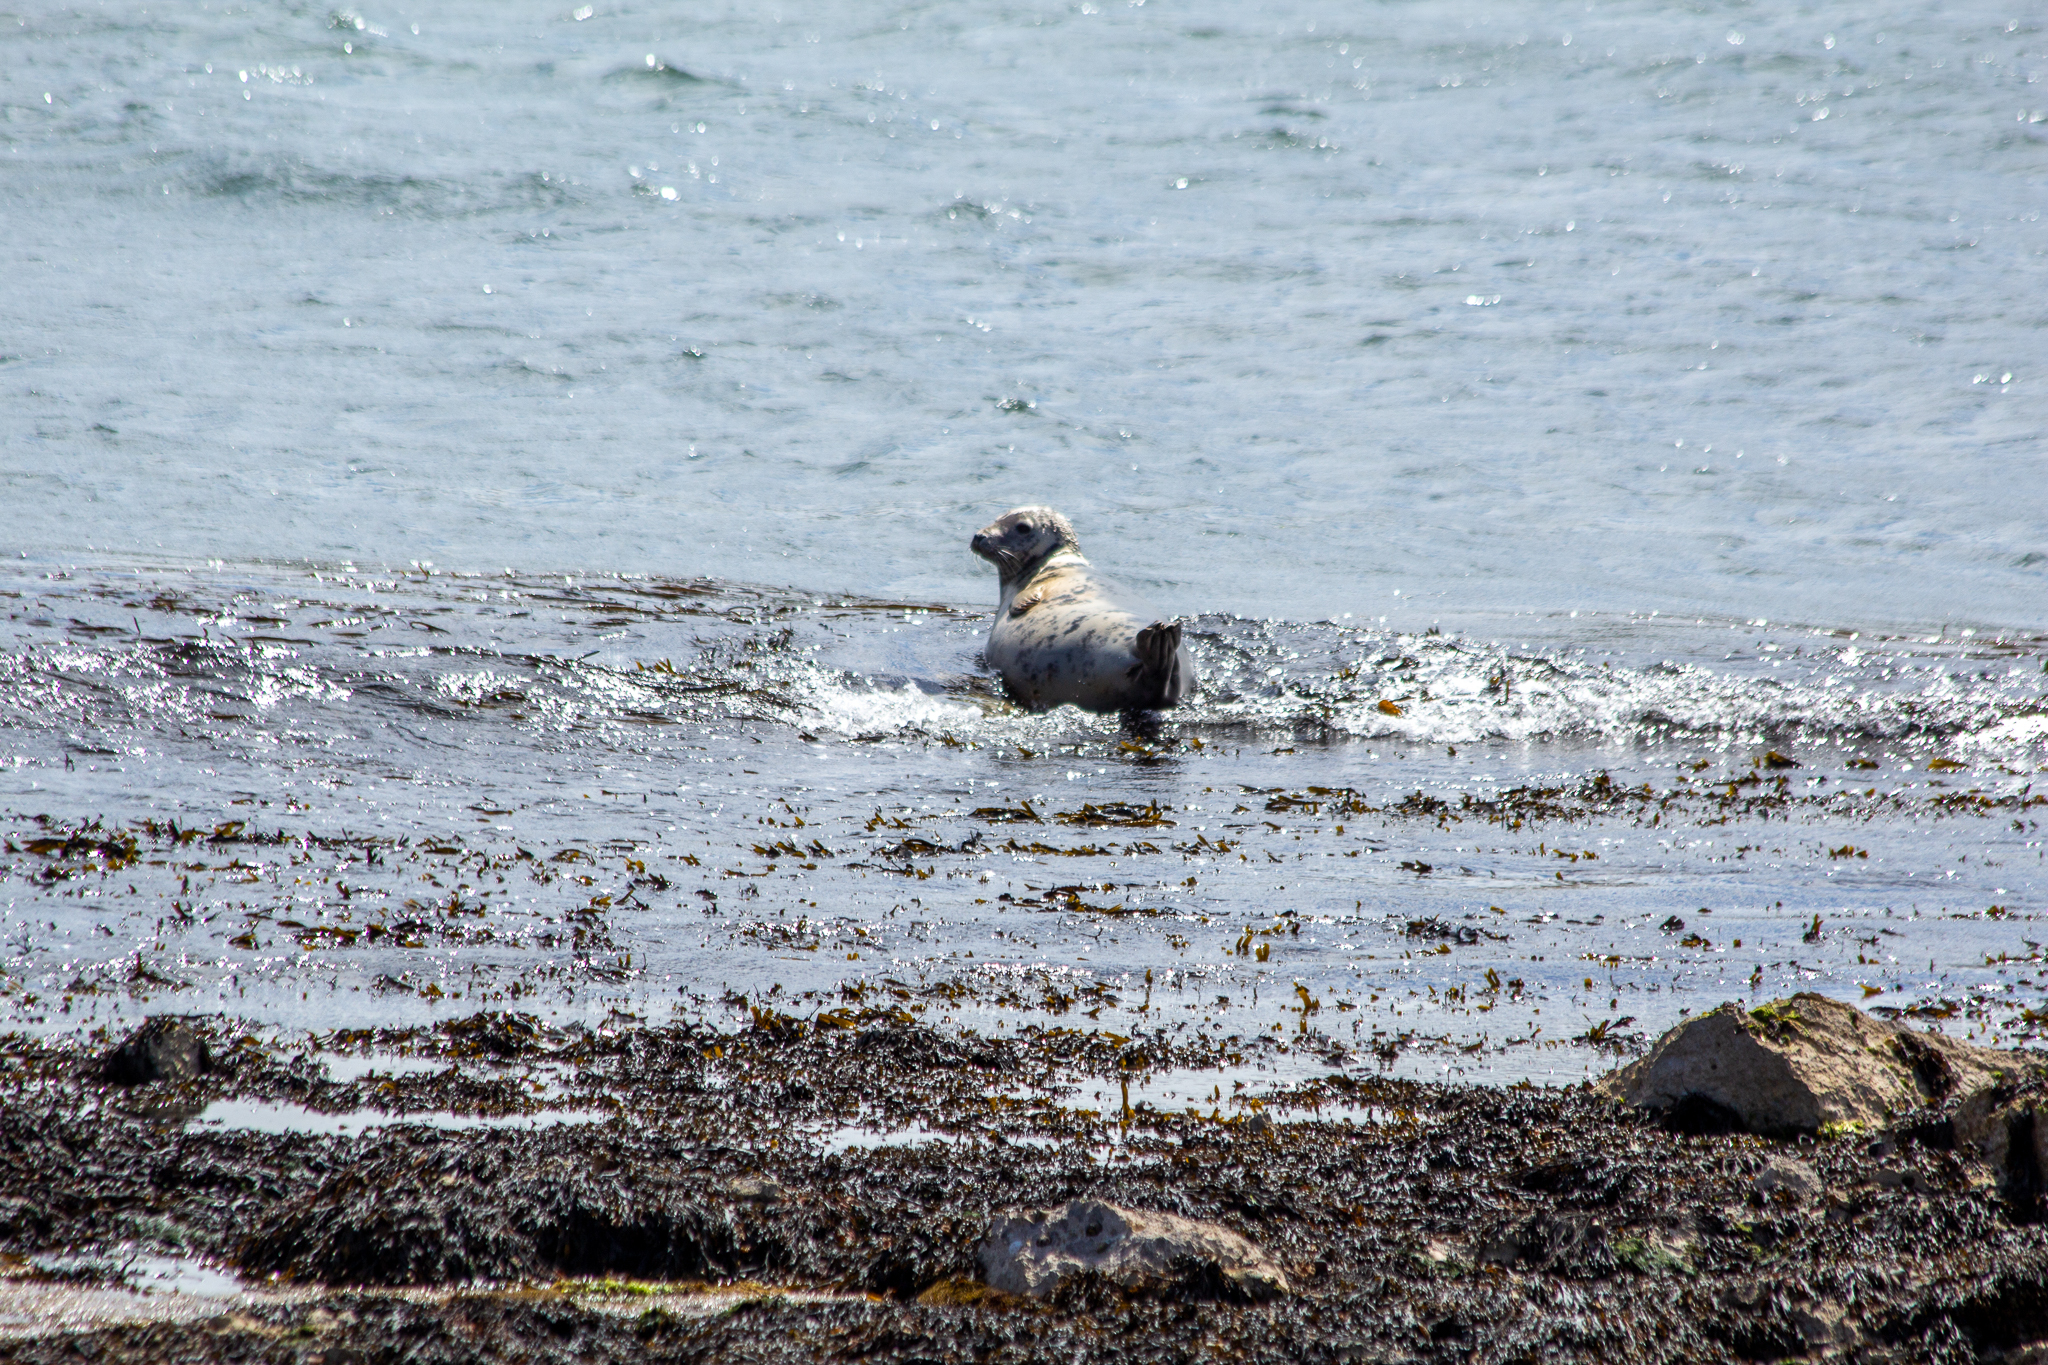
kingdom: Animalia
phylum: Chordata
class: Mammalia
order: Carnivora
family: Phocidae
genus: Halichoerus
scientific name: Halichoerus grypus
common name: Grey seal
